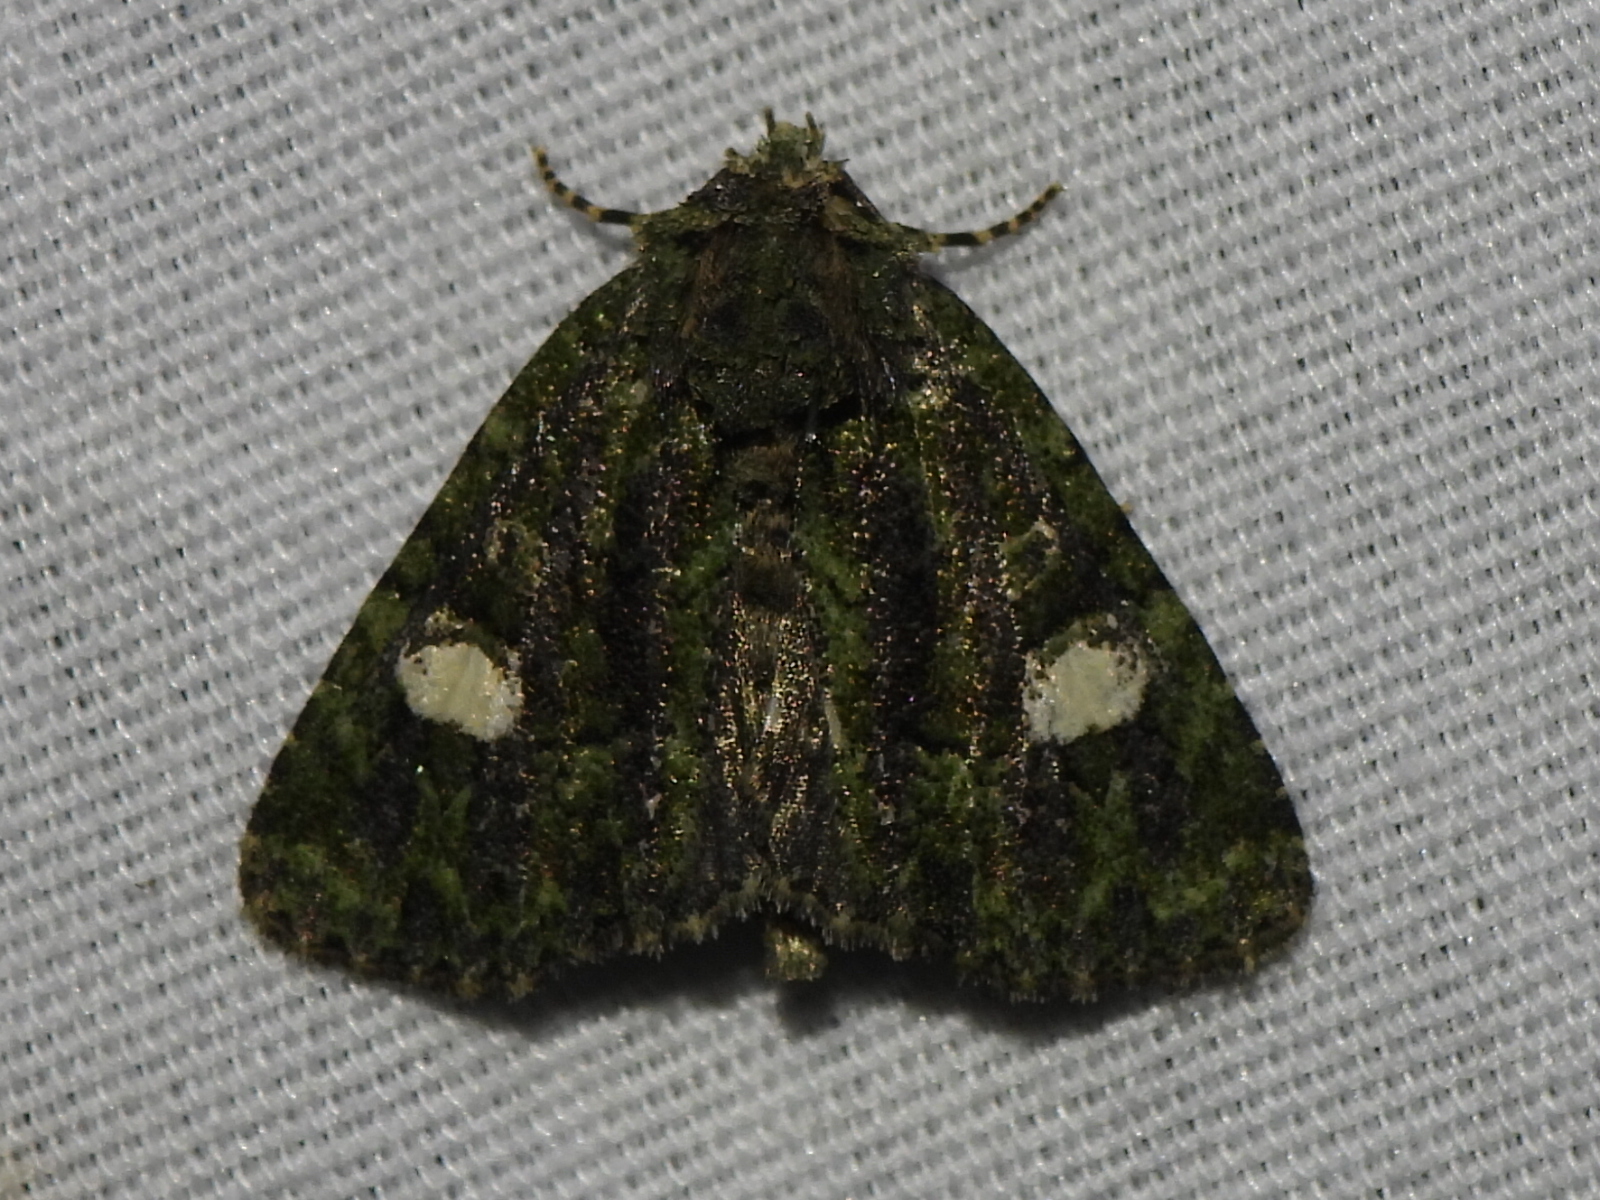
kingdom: Animalia
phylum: Arthropoda
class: Insecta
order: Lepidoptera
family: Noctuidae
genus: Phosphila
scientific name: Phosphila miselioides
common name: Spotted phosphila moth
